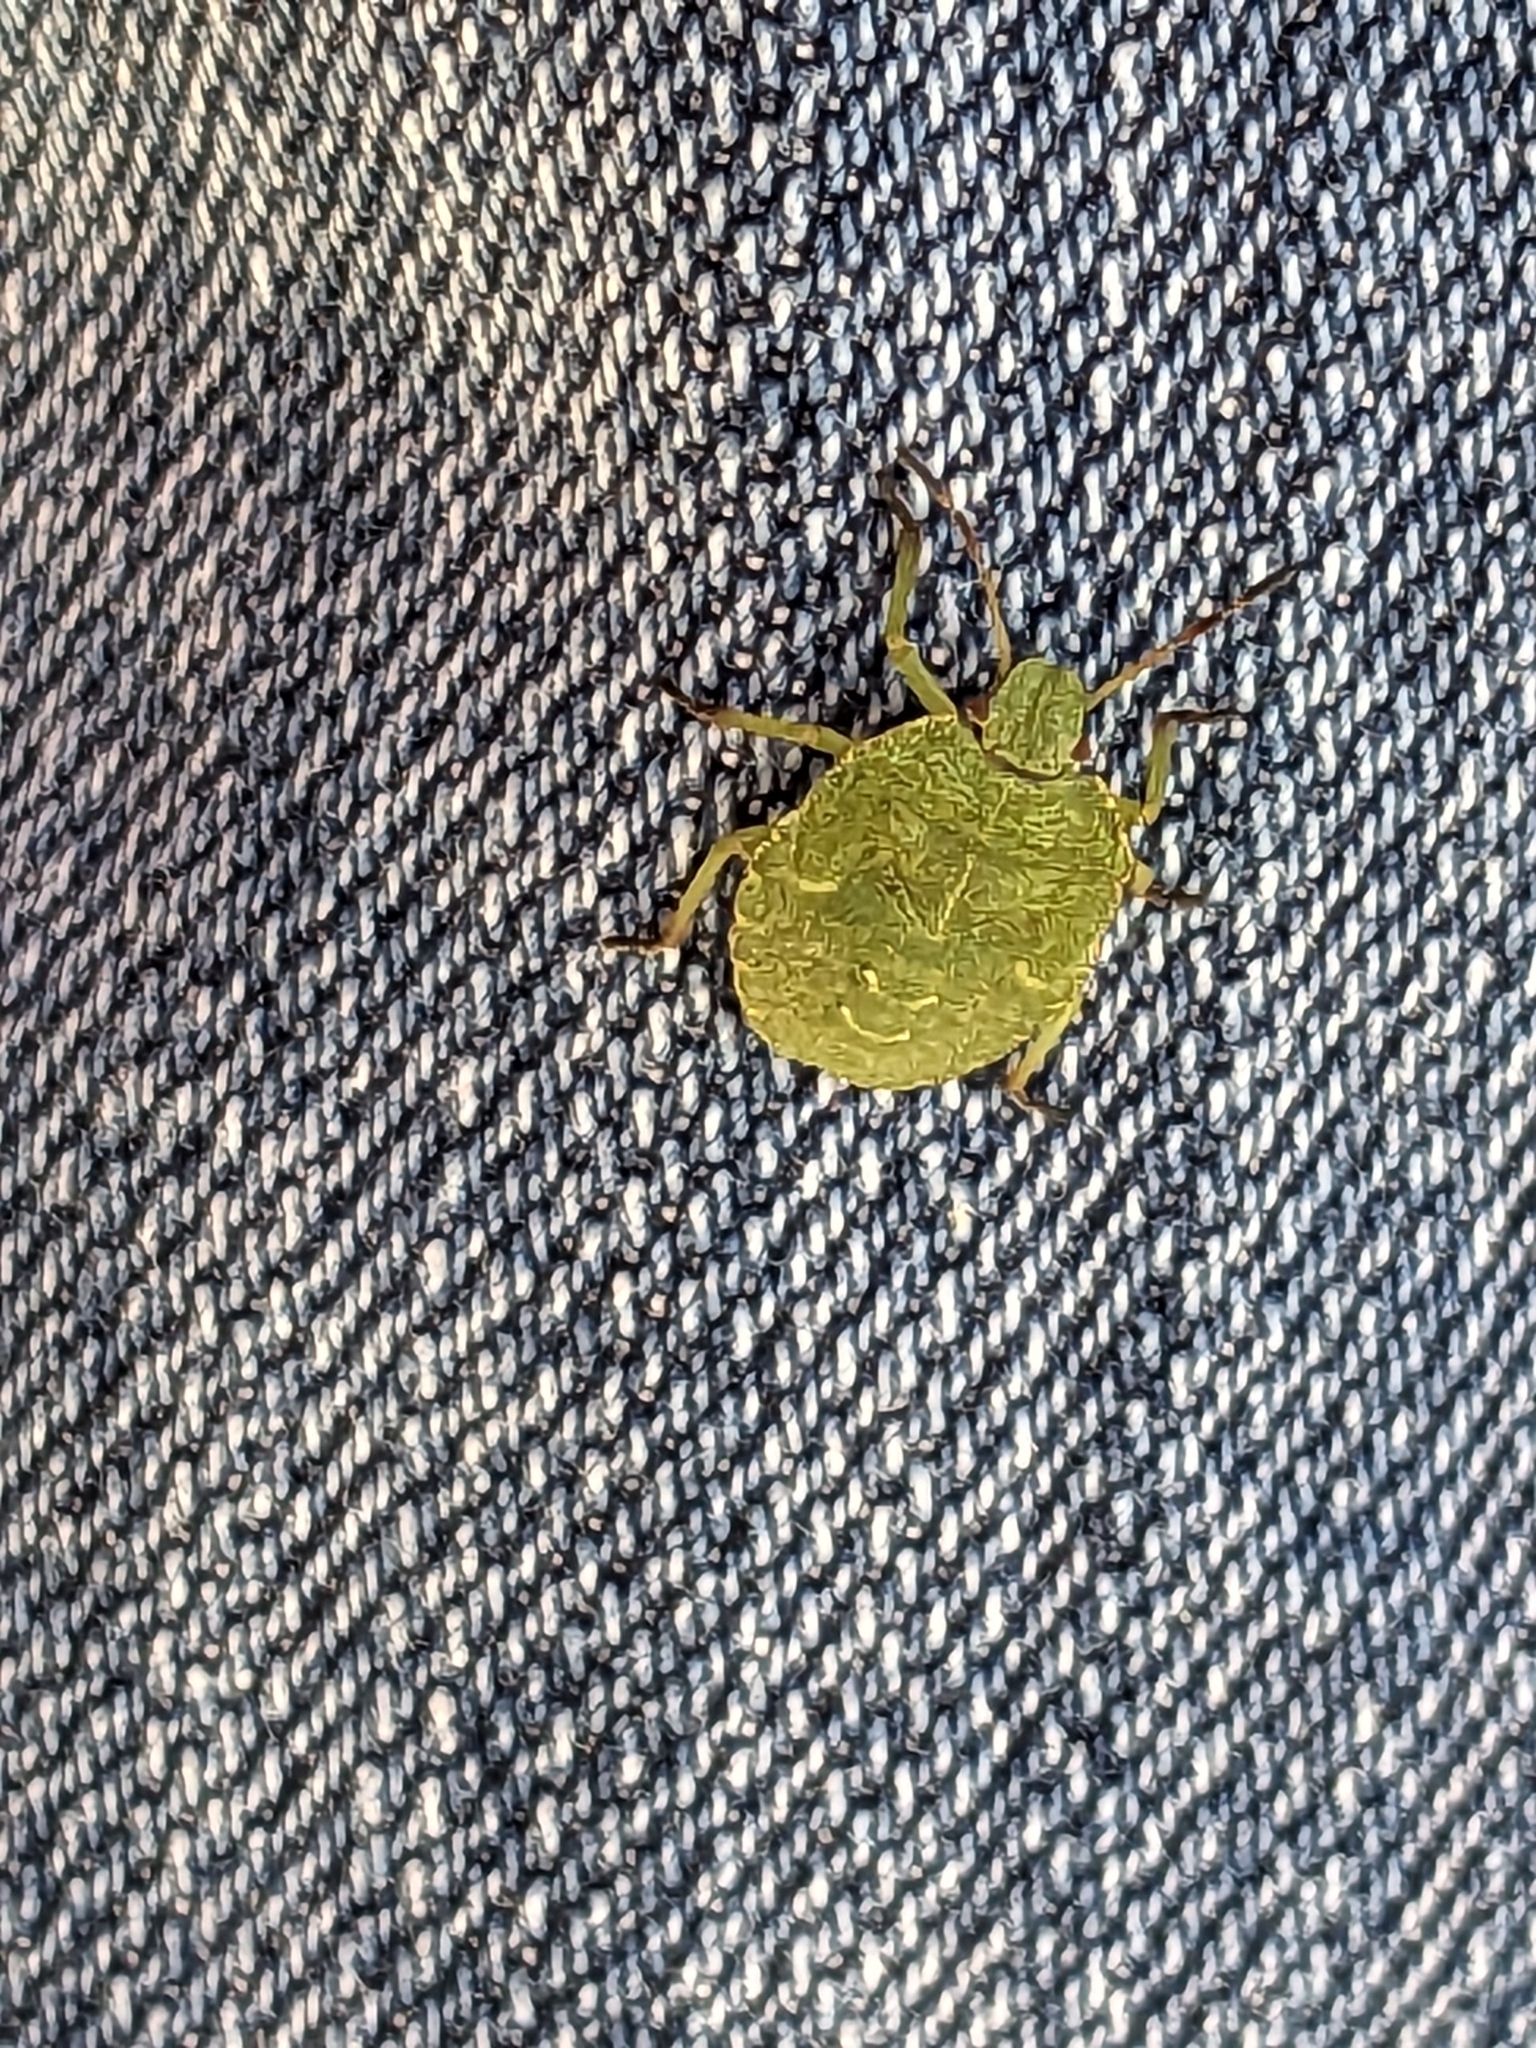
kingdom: Animalia
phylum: Arthropoda
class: Insecta
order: Hemiptera
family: Pentatomidae
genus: Palomena
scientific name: Palomena prasina
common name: Green shieldbug
